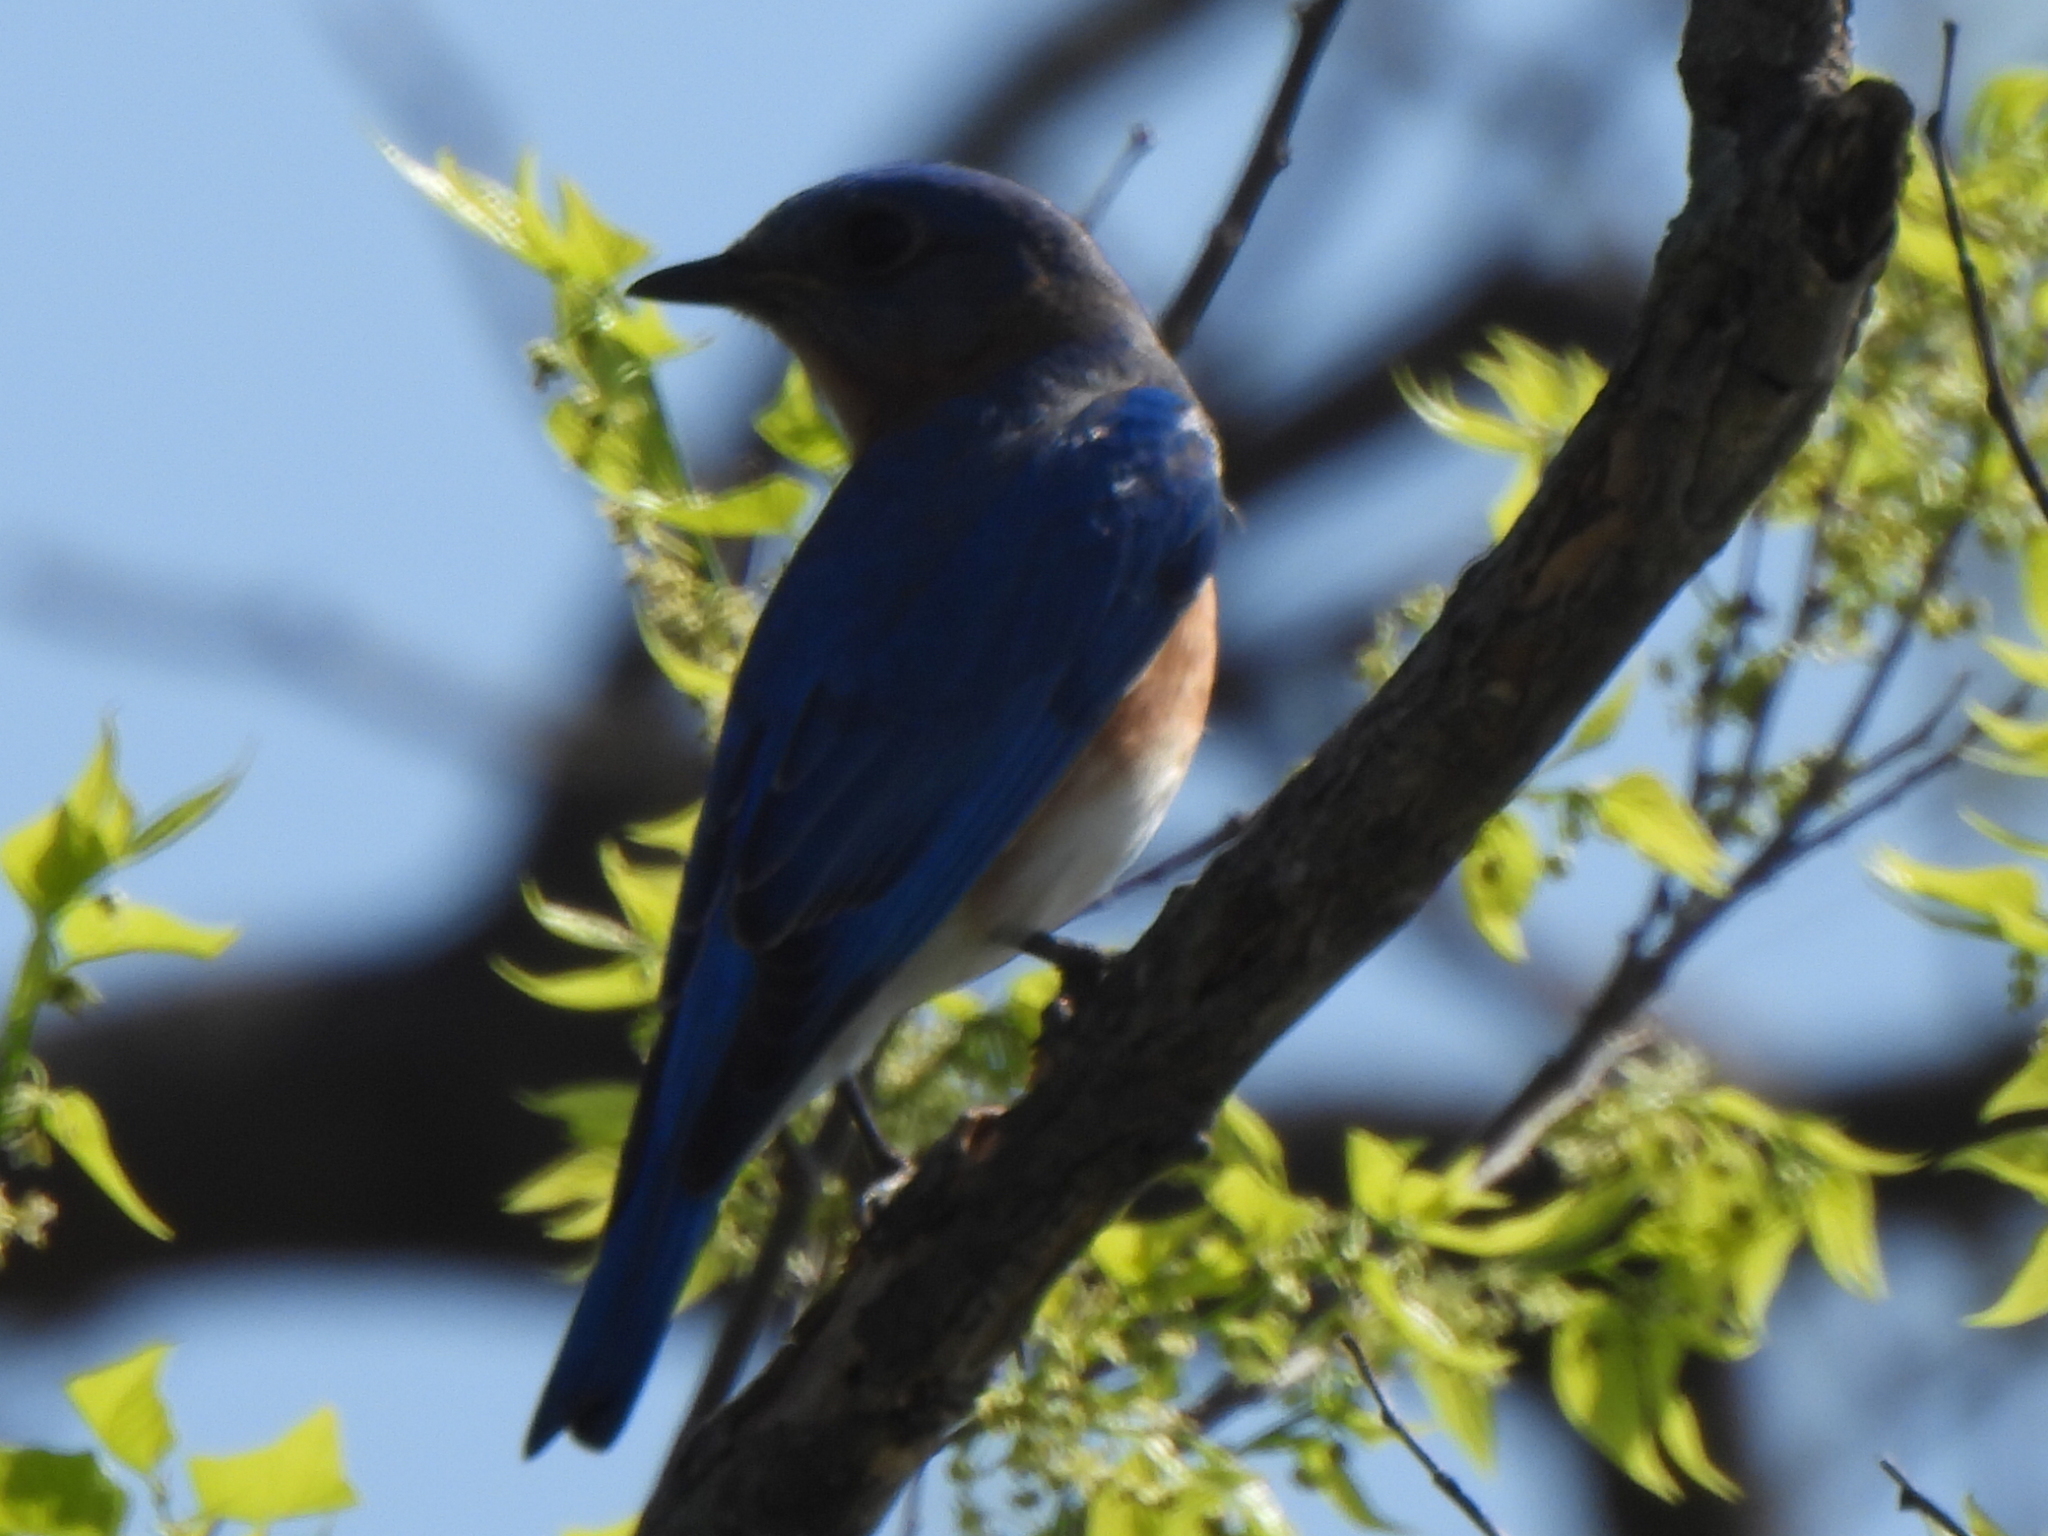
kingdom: Animalia
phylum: Chordata
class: Aves
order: Passeriformes
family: Turdidae
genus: Sialia
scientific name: Sialia sialis
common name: Eastern bluebird
